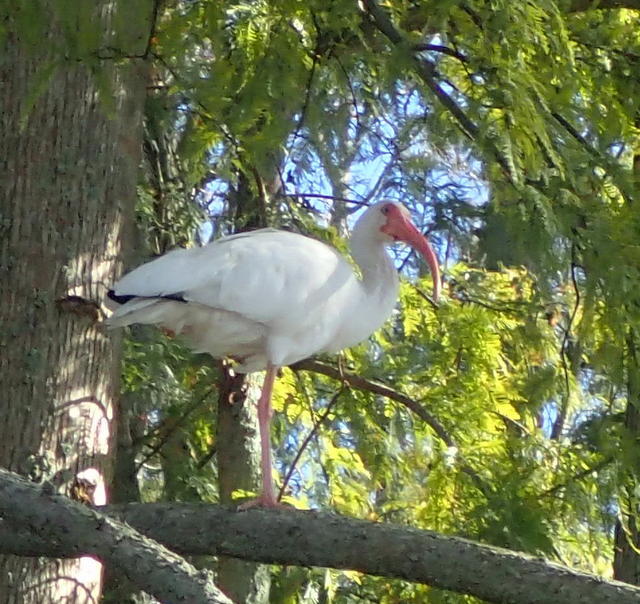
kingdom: Animalia
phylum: Chordata
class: Aves
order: Pelecaniformes
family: Threskiornithidae
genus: Eudocimus
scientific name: Eudocimus albus
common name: White ibis
